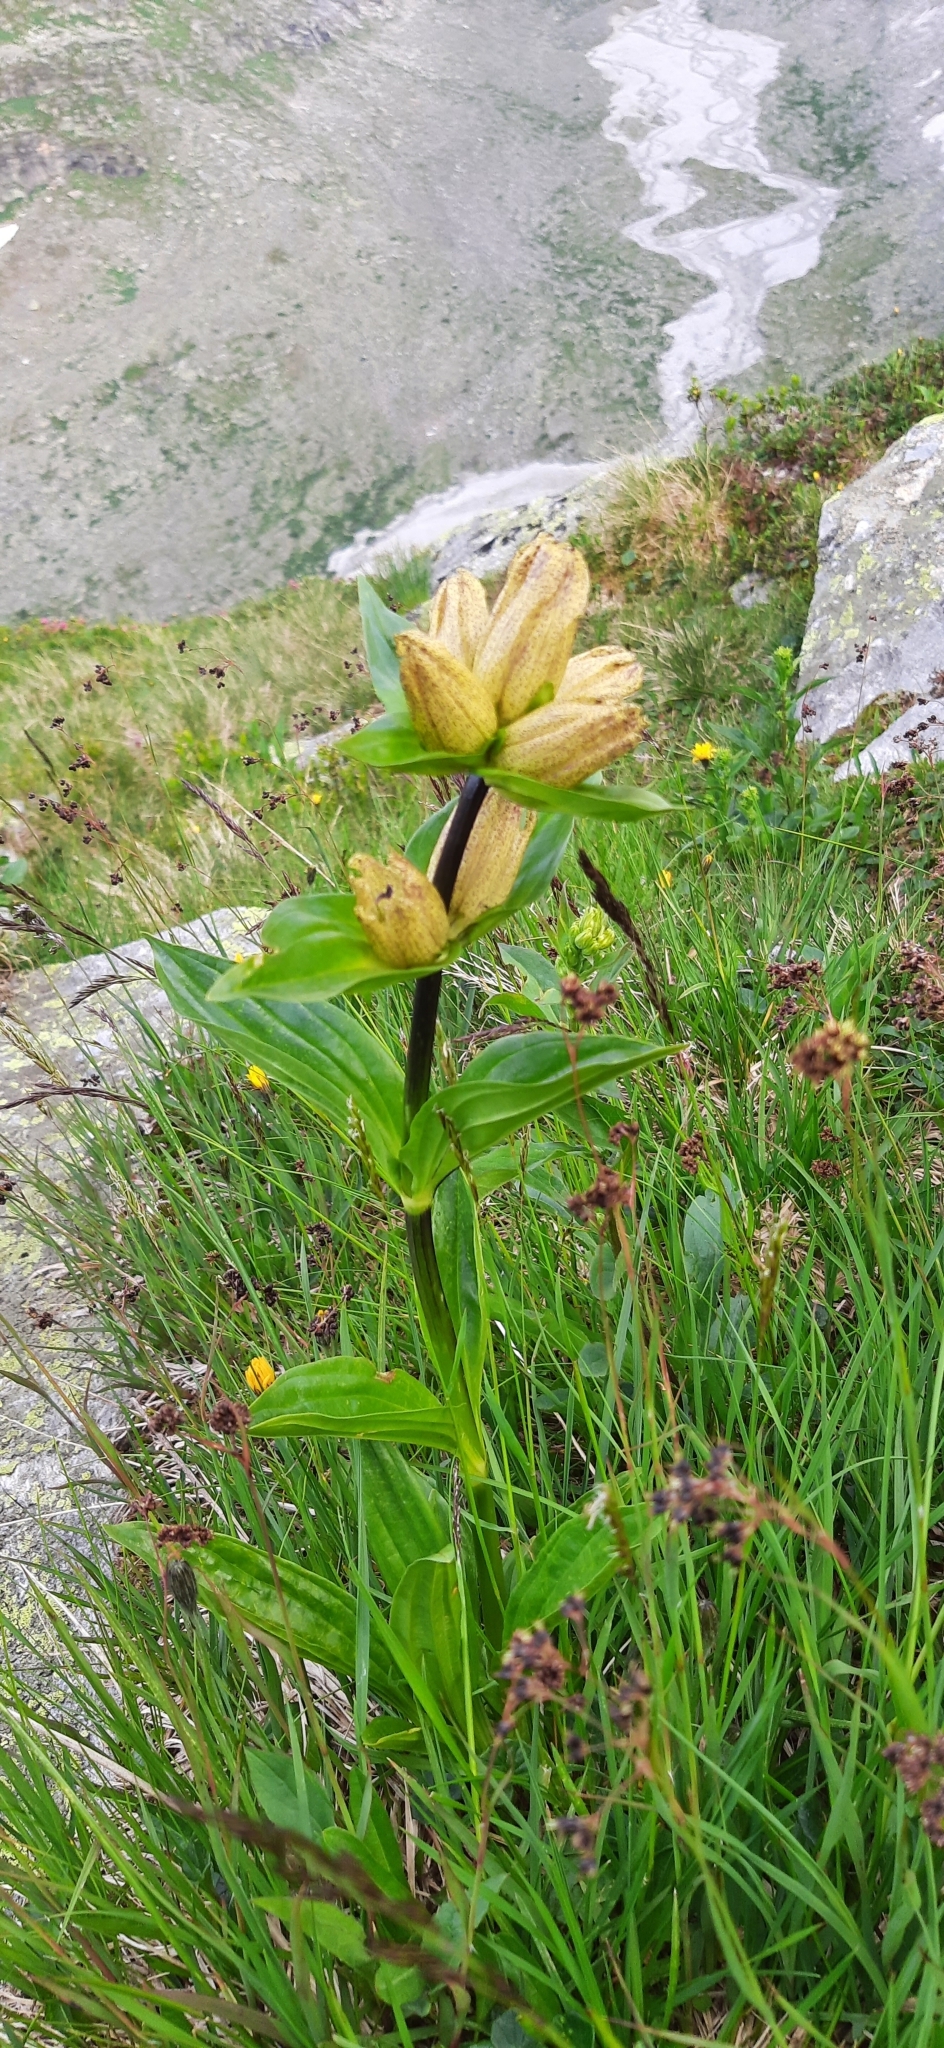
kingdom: Plantae
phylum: Tracheophyta
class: Magnoliopsida
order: Gentianales
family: Gentianaceae
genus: Gentiana
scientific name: Gentiana punctata
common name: Spotted gentian
